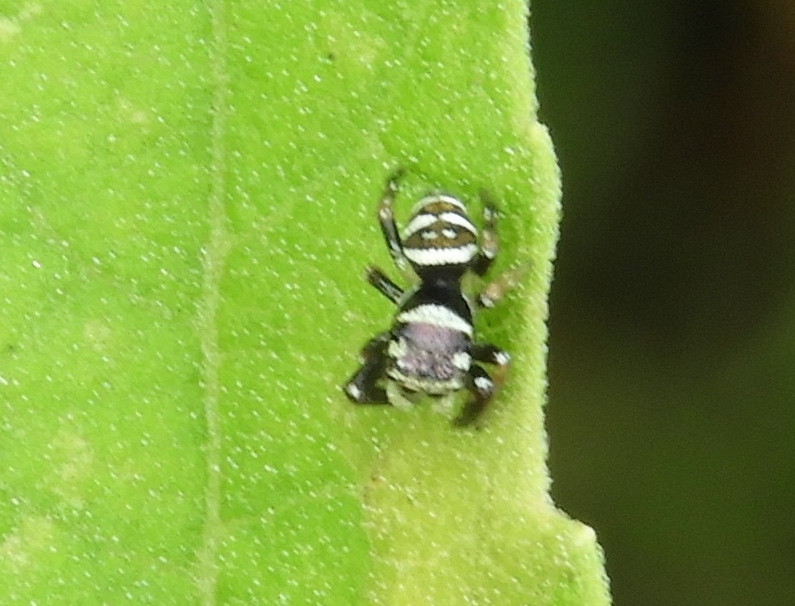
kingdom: Animalia
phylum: Arthropoda
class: Arachnida
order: Araneae
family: Salticidae
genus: Sassacus
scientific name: Sassacus
